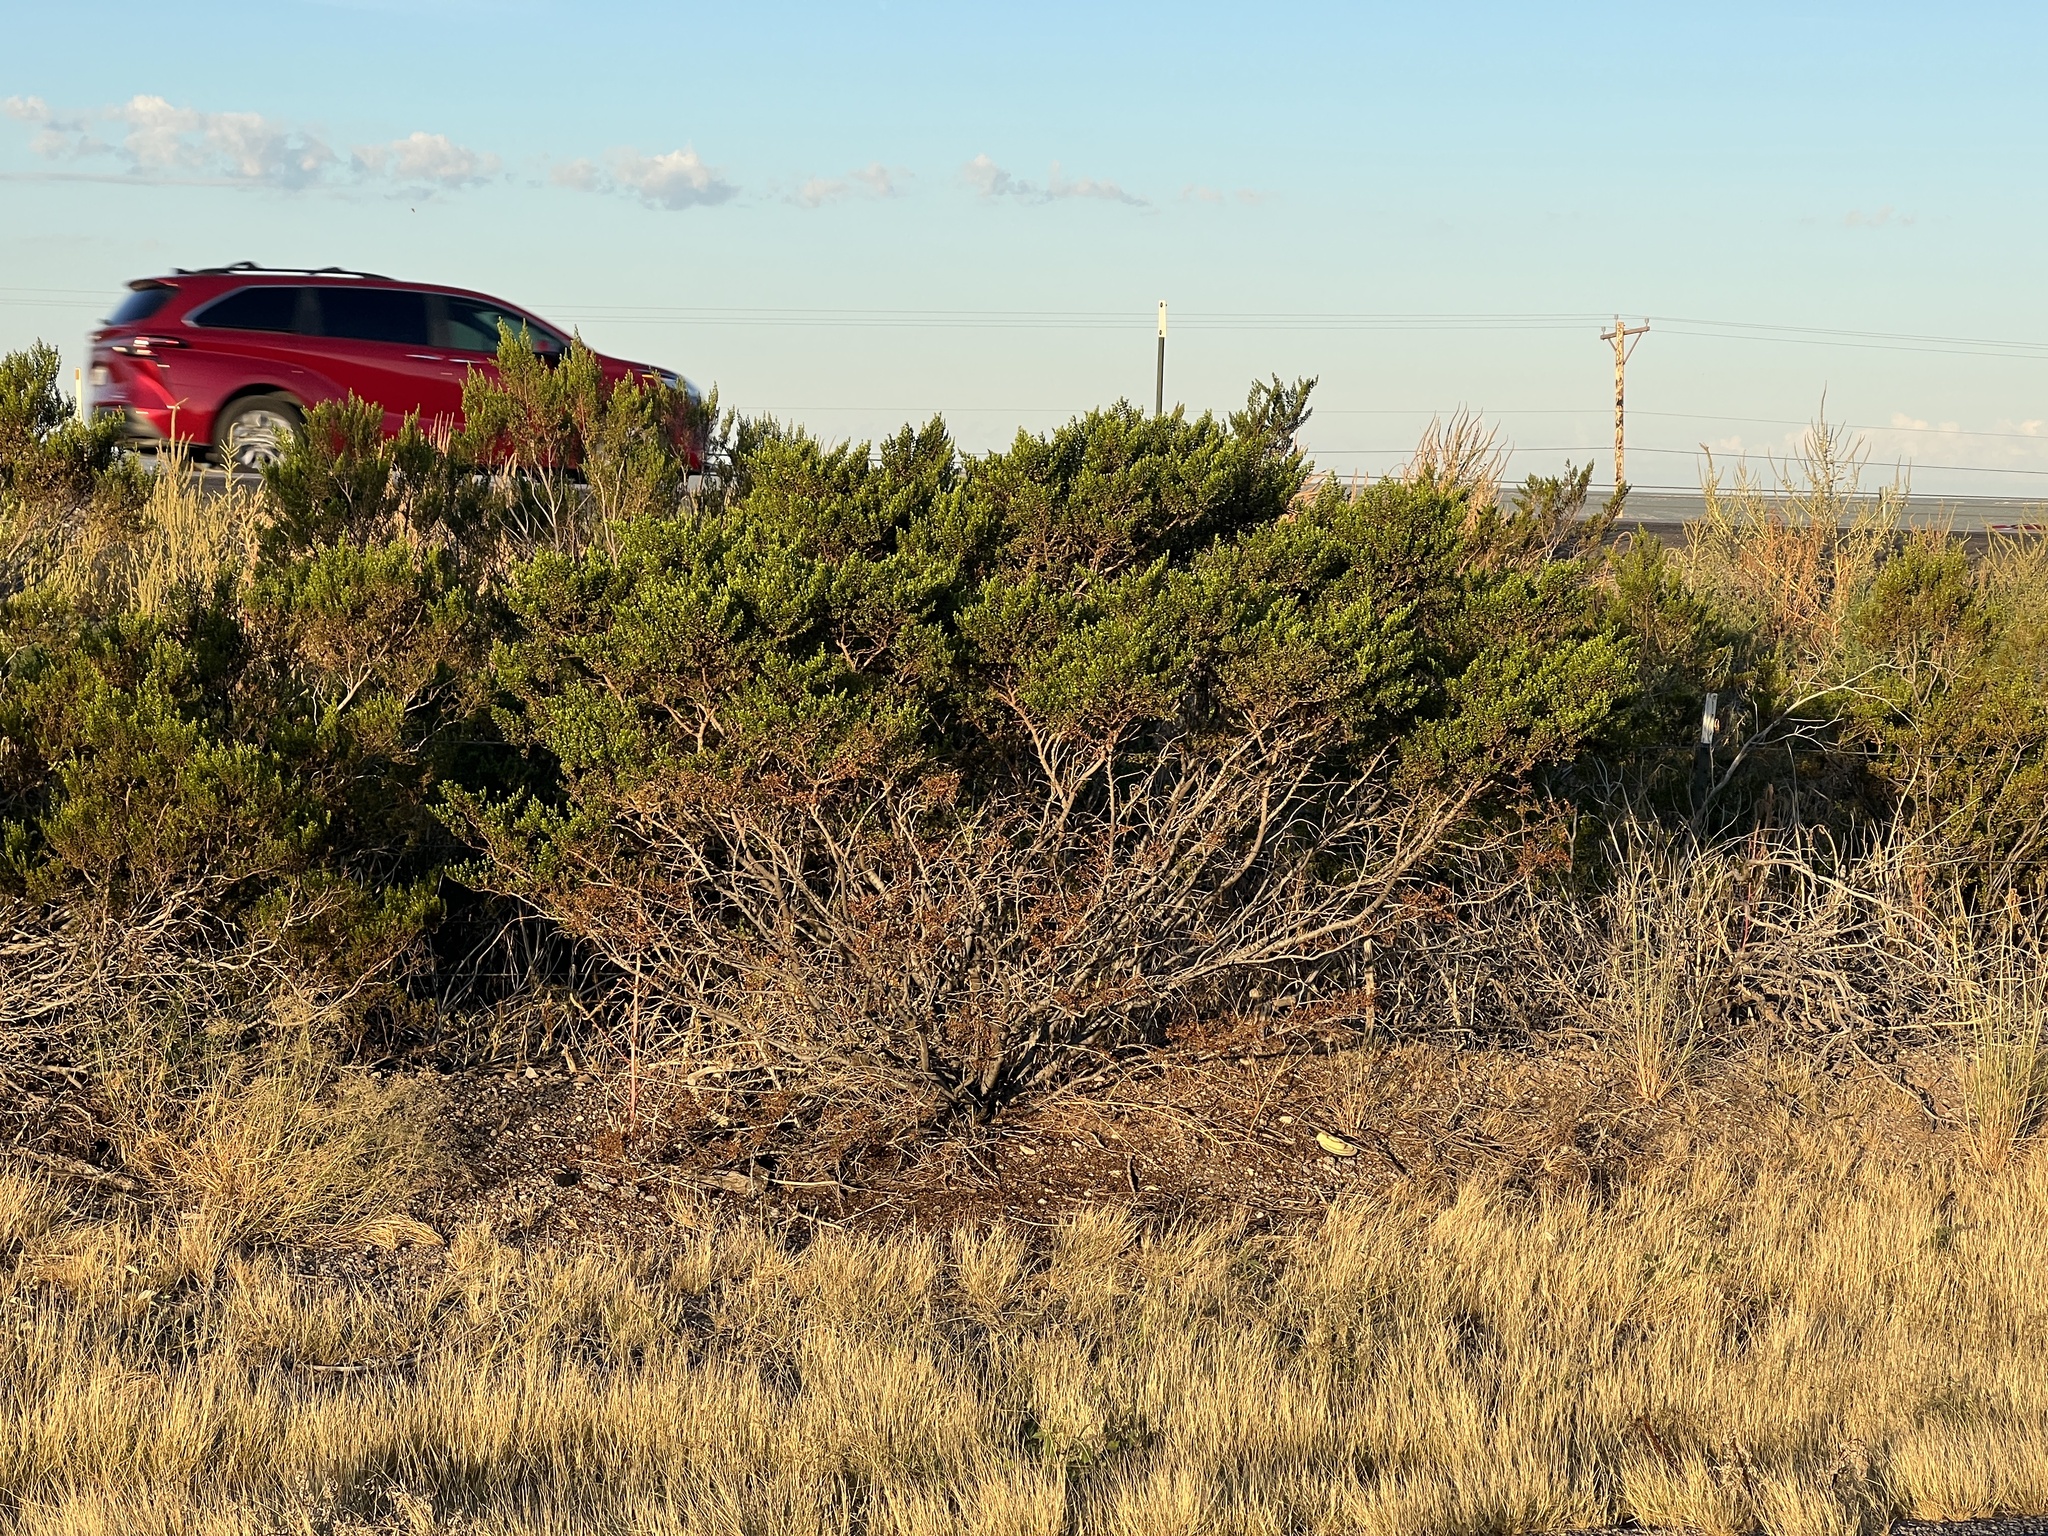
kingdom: Plantae
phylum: Tracheophyta
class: Magnoliopsida
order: Zygophyllales
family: Zygophyllaceae
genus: Larrea
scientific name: Larrea tridentata
